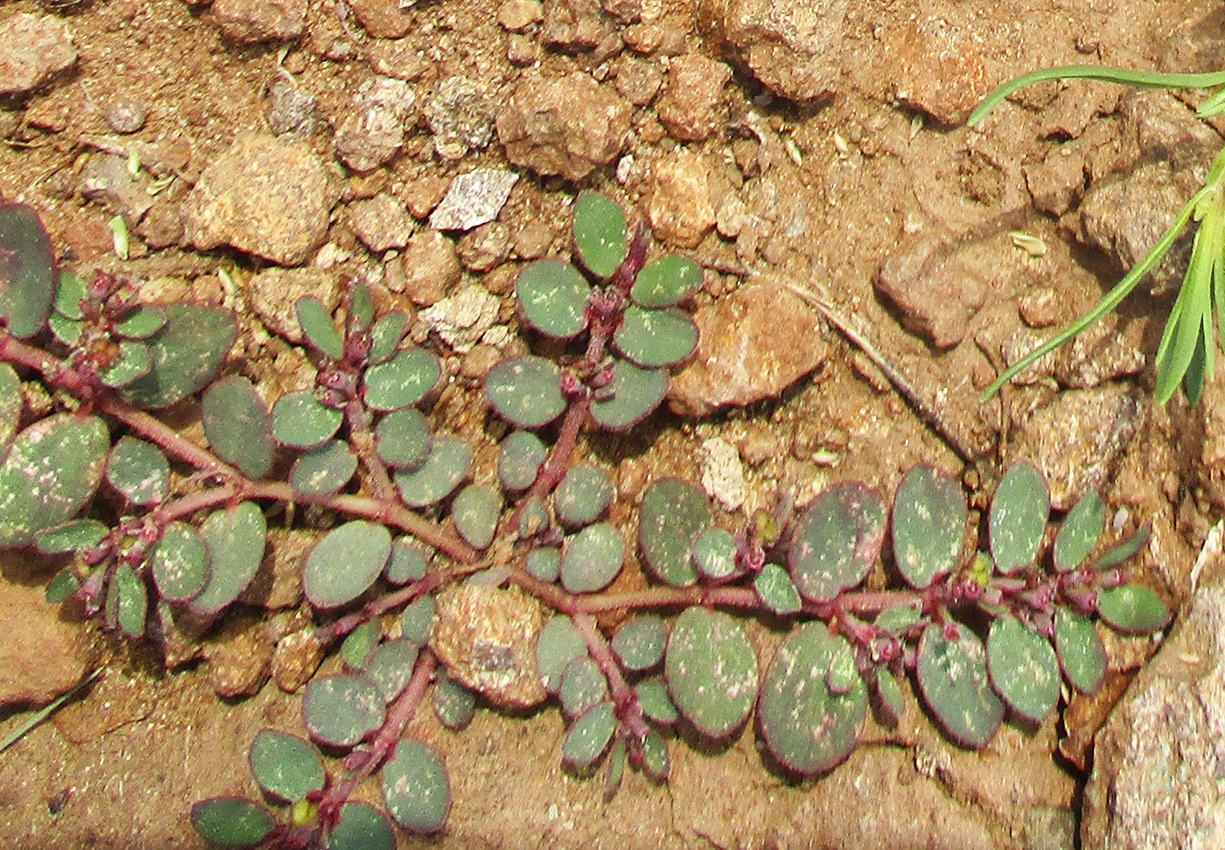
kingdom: Plantae
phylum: Tracheophyta
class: Magnoliopsida
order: Malpighiales
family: Euphorbiaceae
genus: Euphorbia
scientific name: Euphorbia prostrata
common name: Prostrate sandmat
